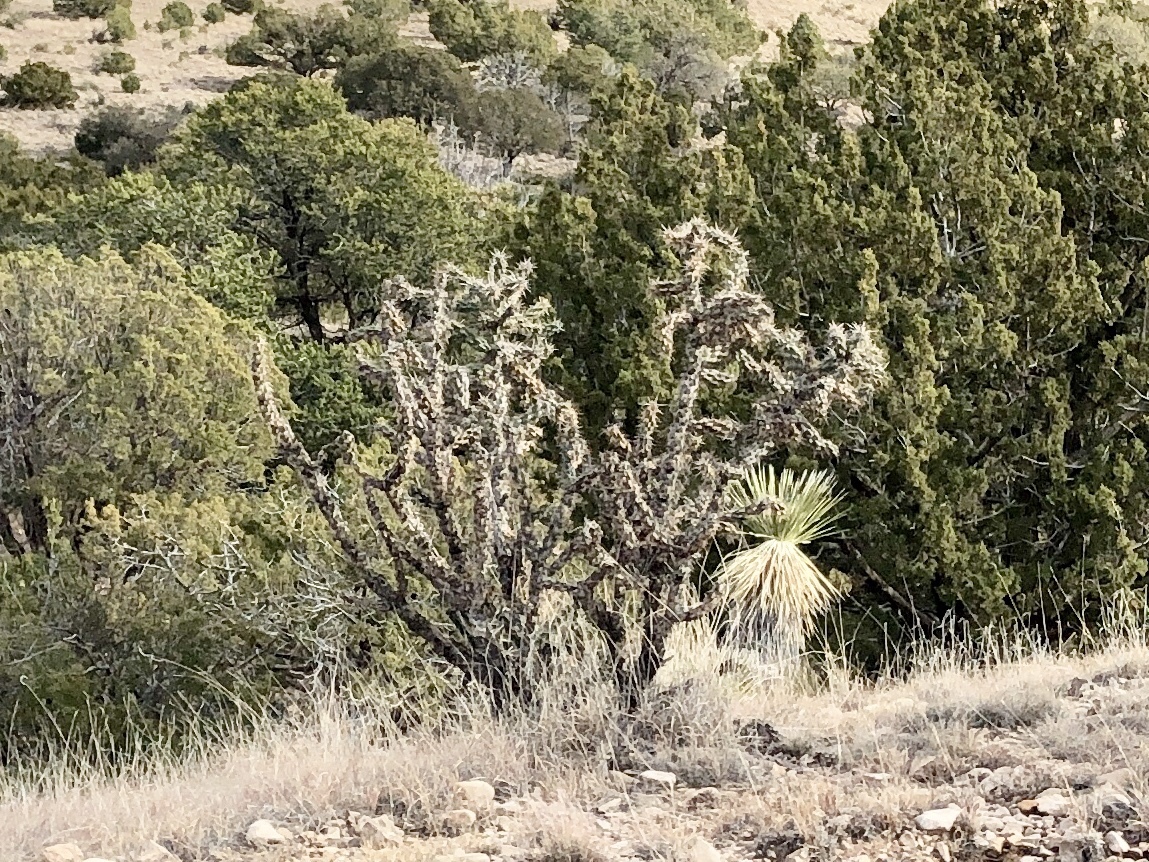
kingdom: Plantae
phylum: Tracheophyta
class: Magnoliopsida
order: Caryophyllales
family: Cactaceae
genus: Cylindropuntia
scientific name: Cylindropuntia imbricata
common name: Candelabrum cactus
